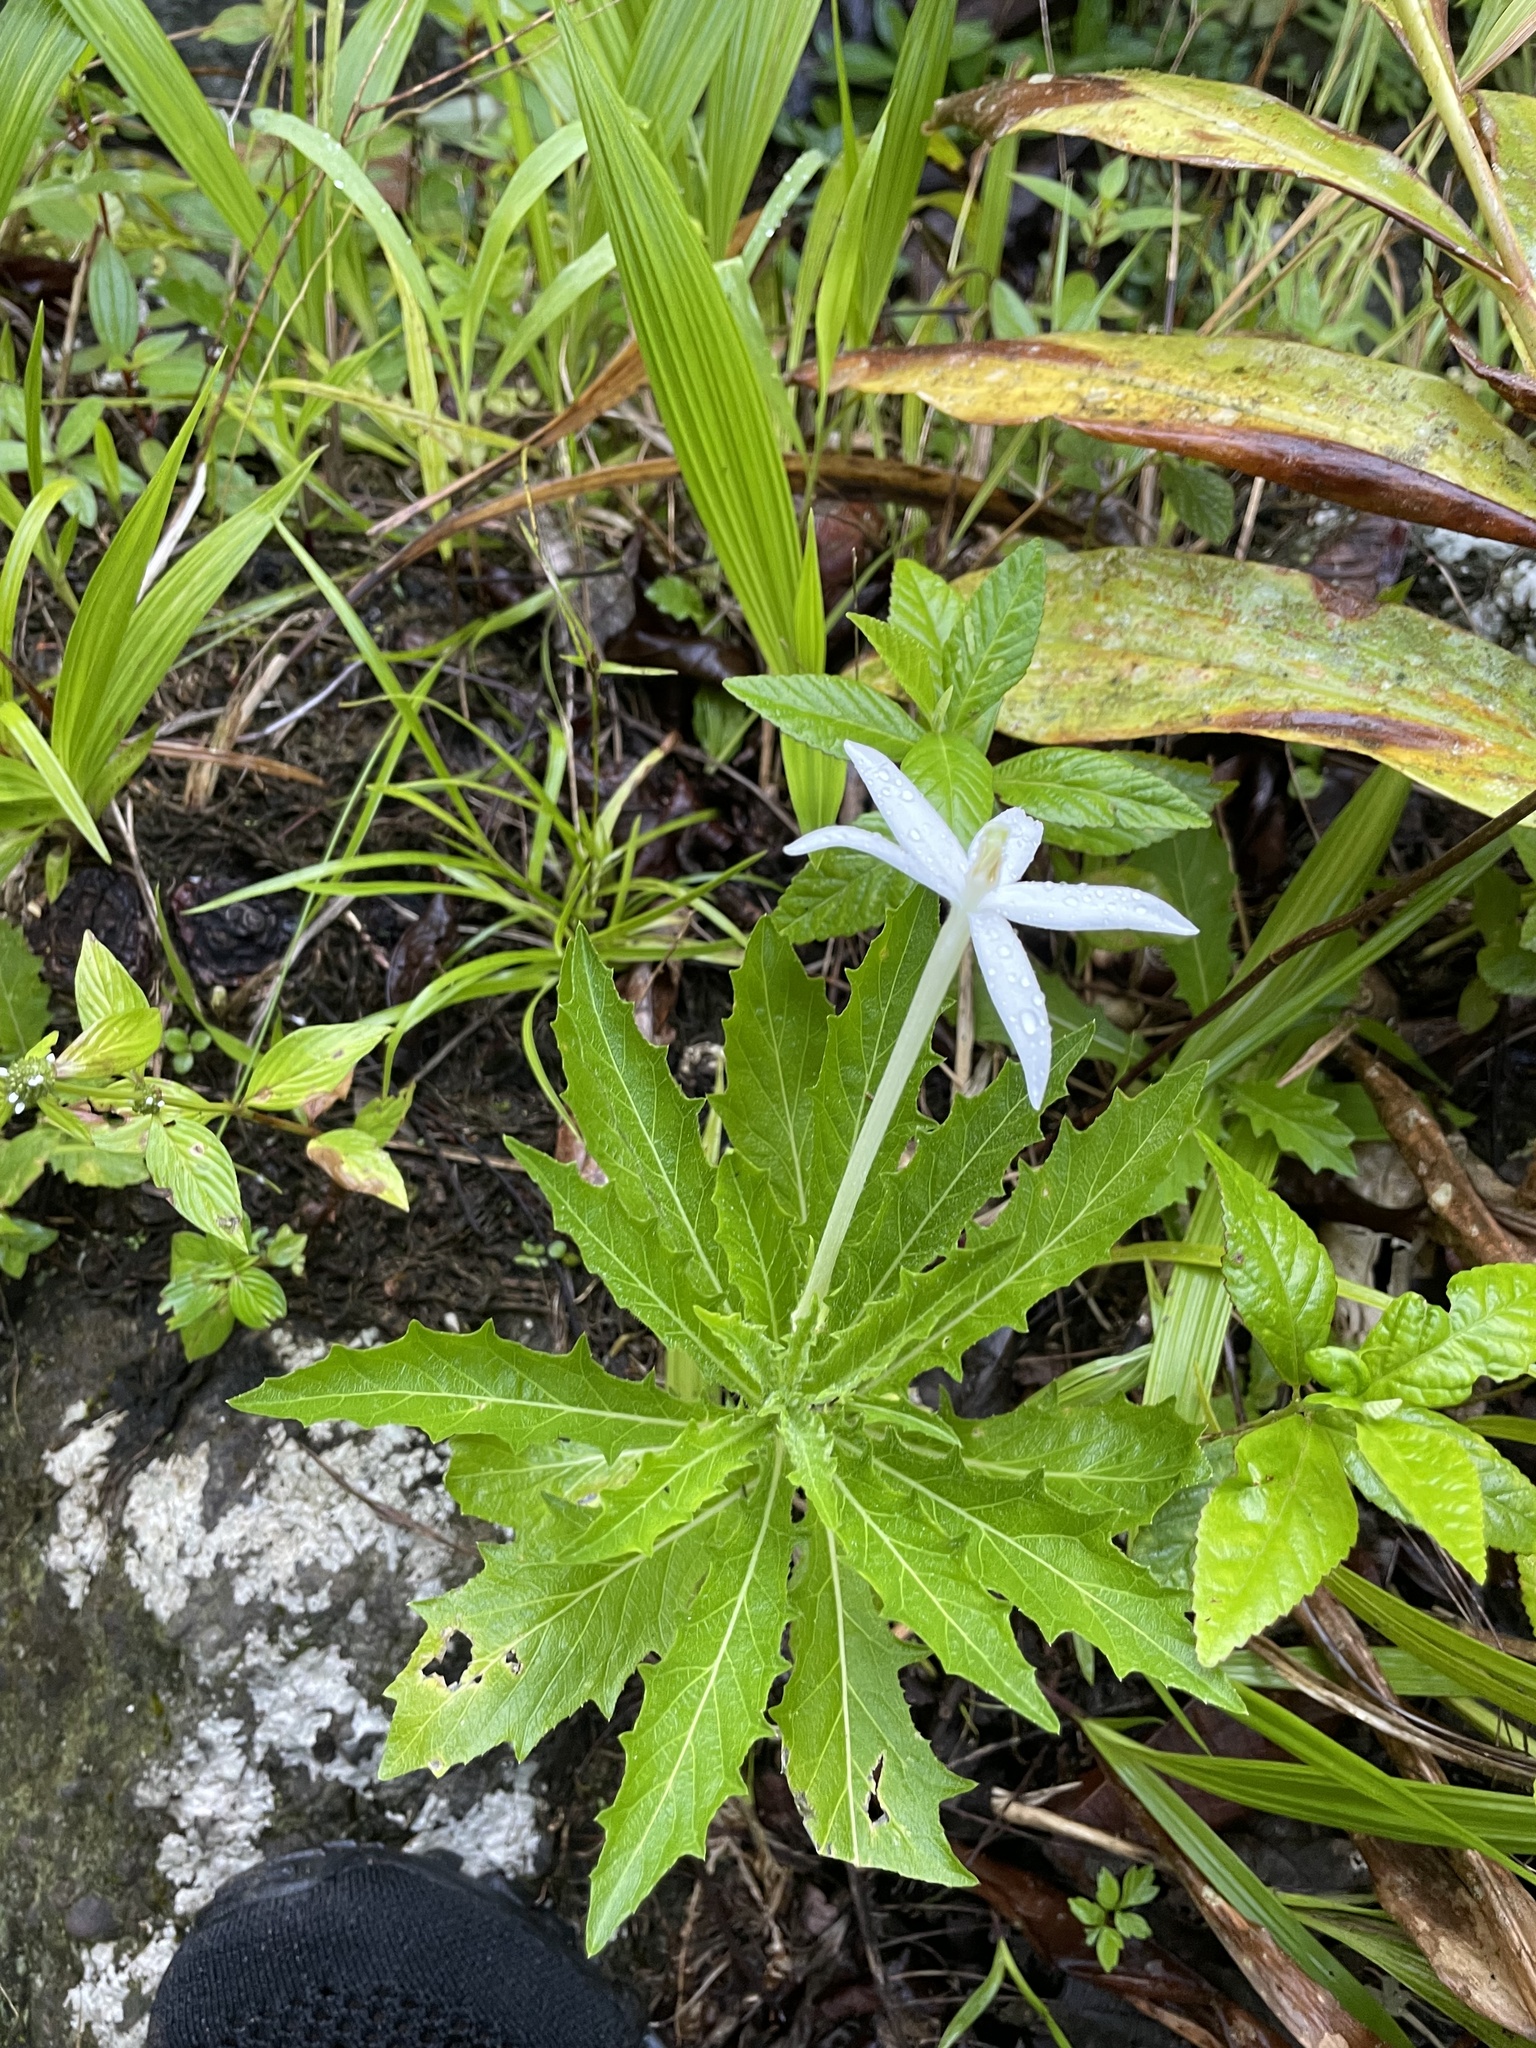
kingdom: Plantae
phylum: Tracheophyta
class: Magnoliopsida
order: Asterales
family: Campanulaceae
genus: Hippobroma
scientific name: Hippobroma longiflora
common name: Madamfate
